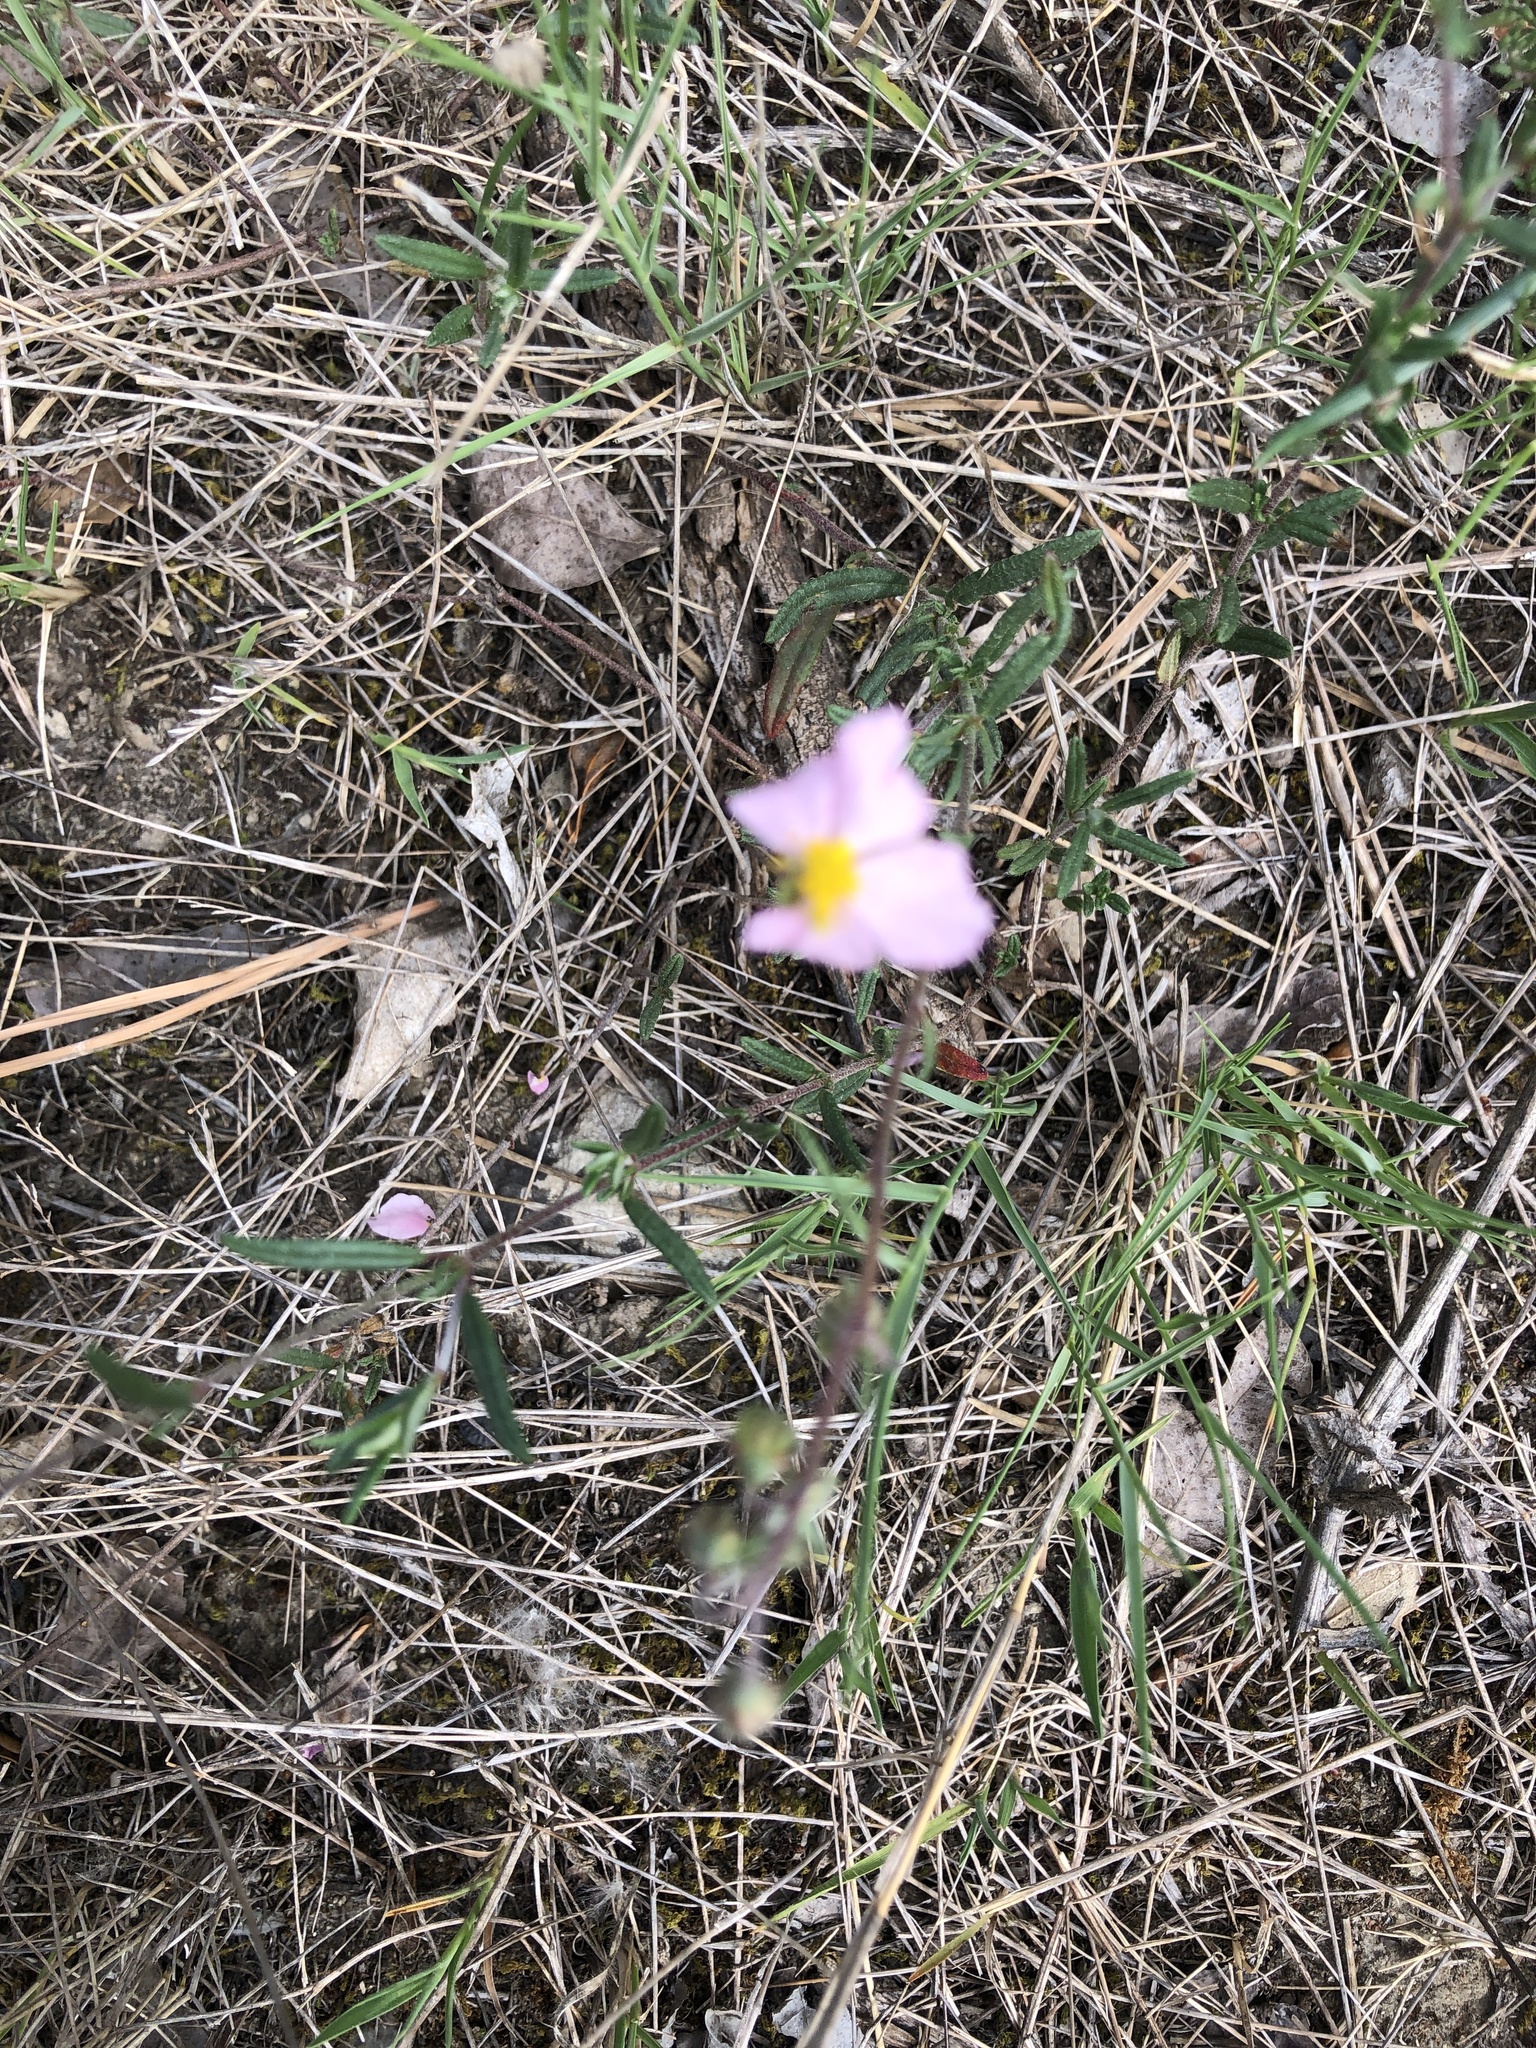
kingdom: Plantae
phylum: Tracheophyta
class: Magnoliopsida
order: Malvales
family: Cistaceae
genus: Helianthemum
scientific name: Helianthemum apenninum
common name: White rock-rose
